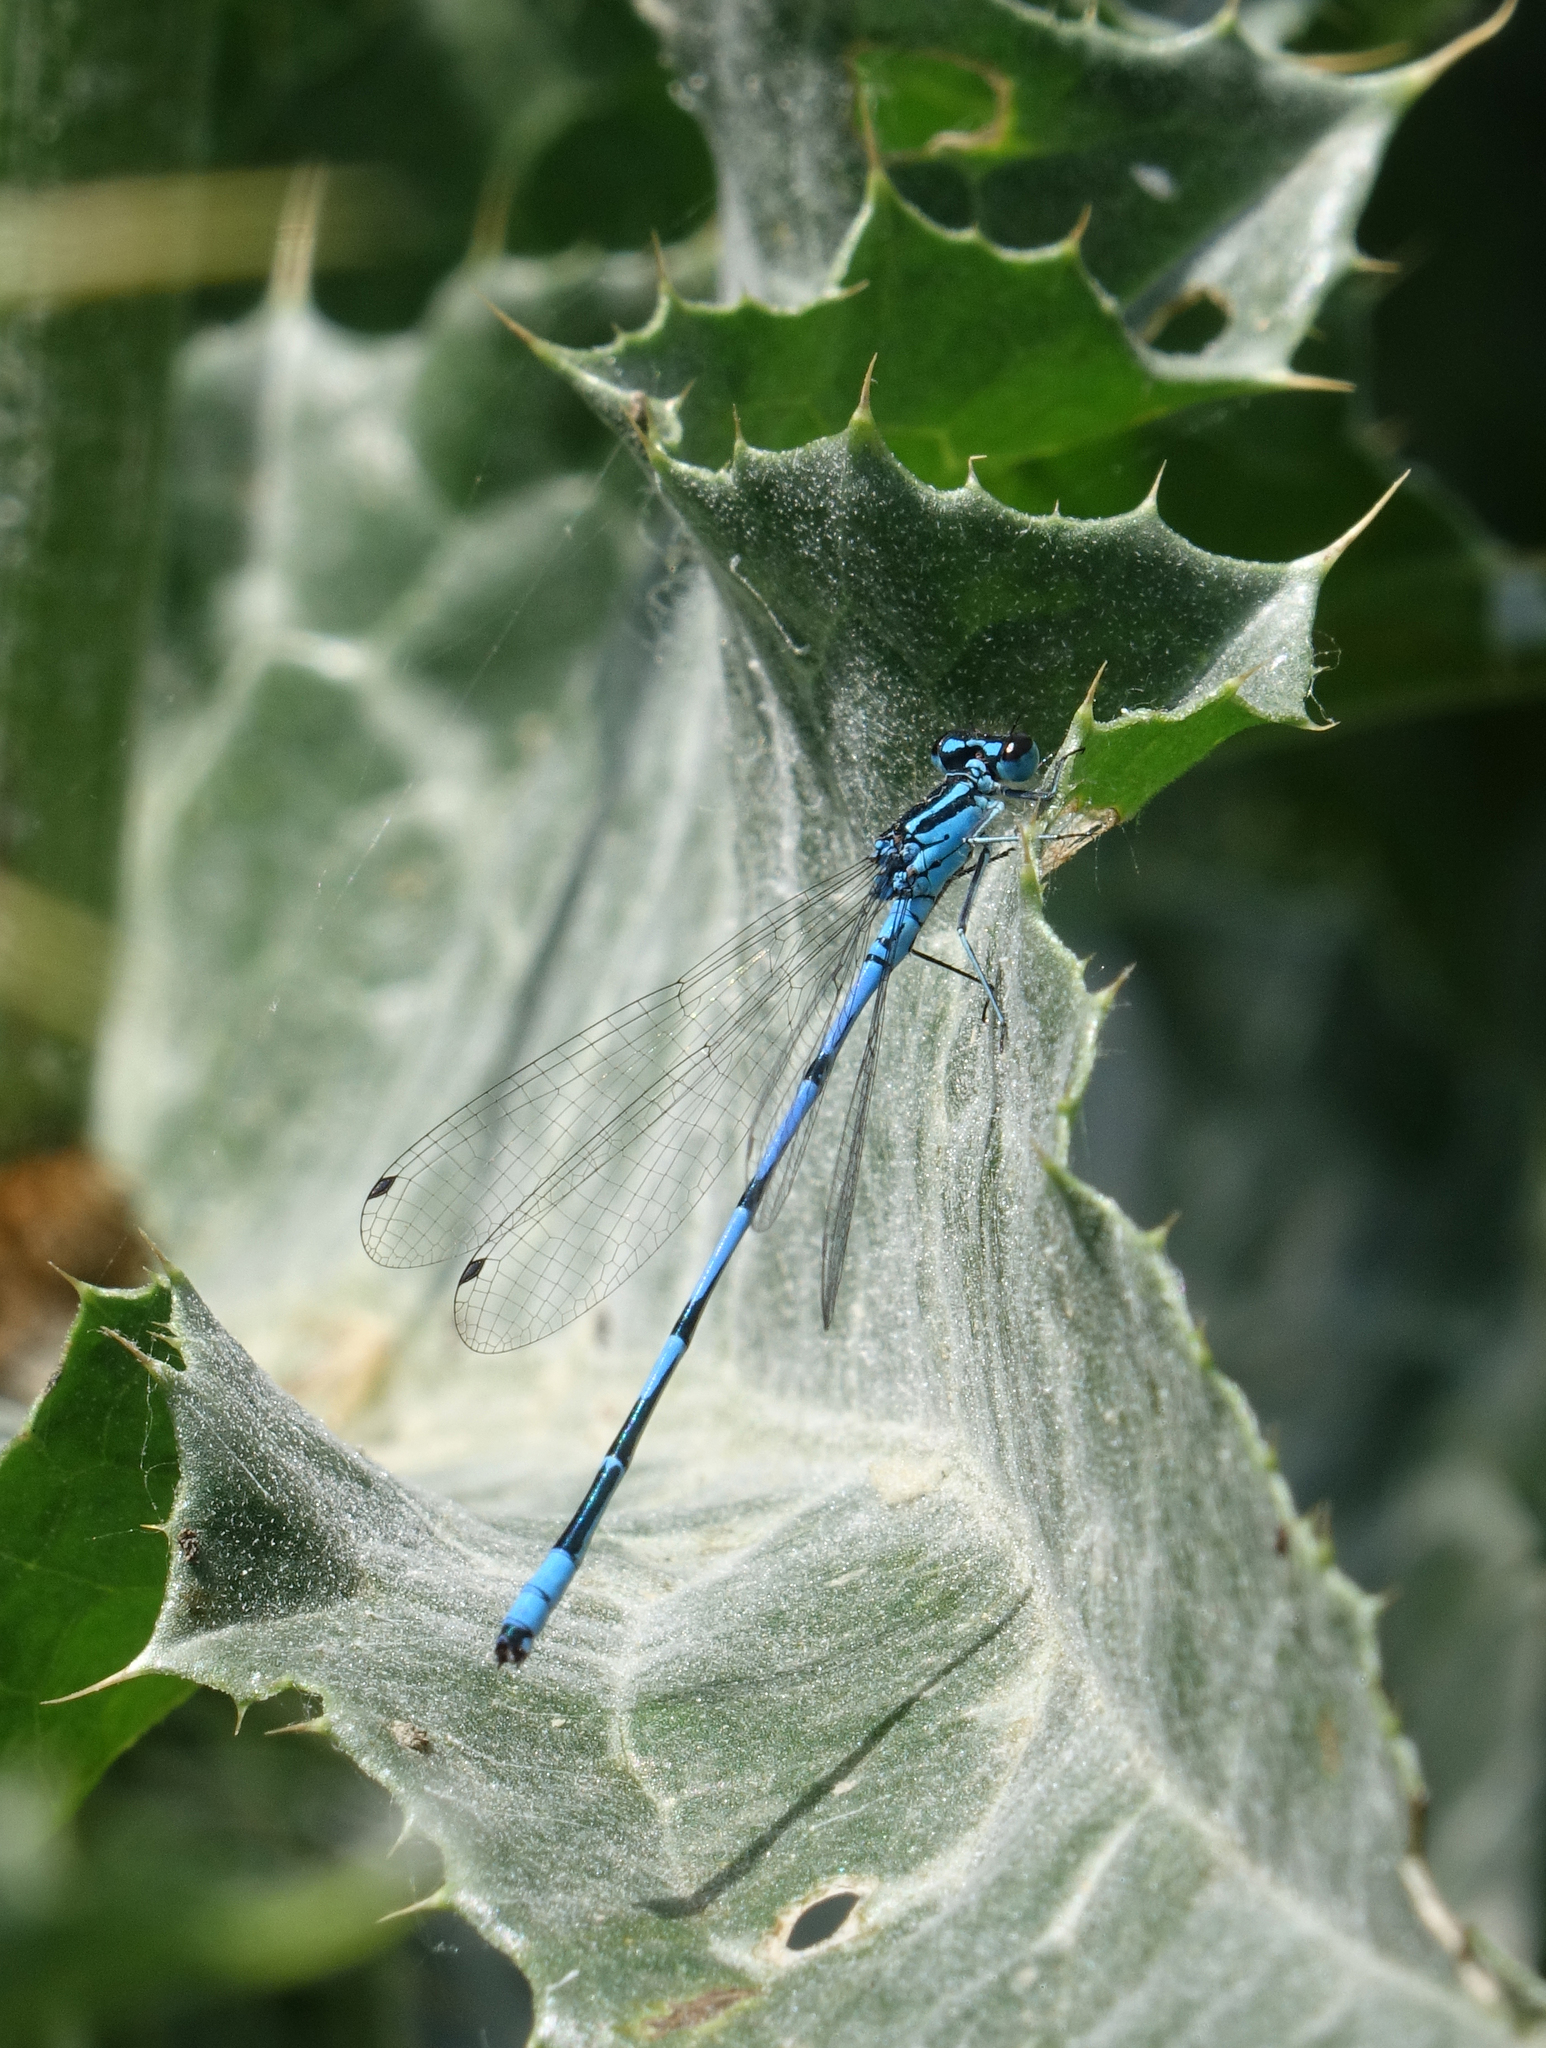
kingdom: Animalia
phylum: Arthropoda
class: Insecta
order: Odonata
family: Coenagrionidae
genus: Coenagrion
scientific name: Coenagrion australocaspicum
